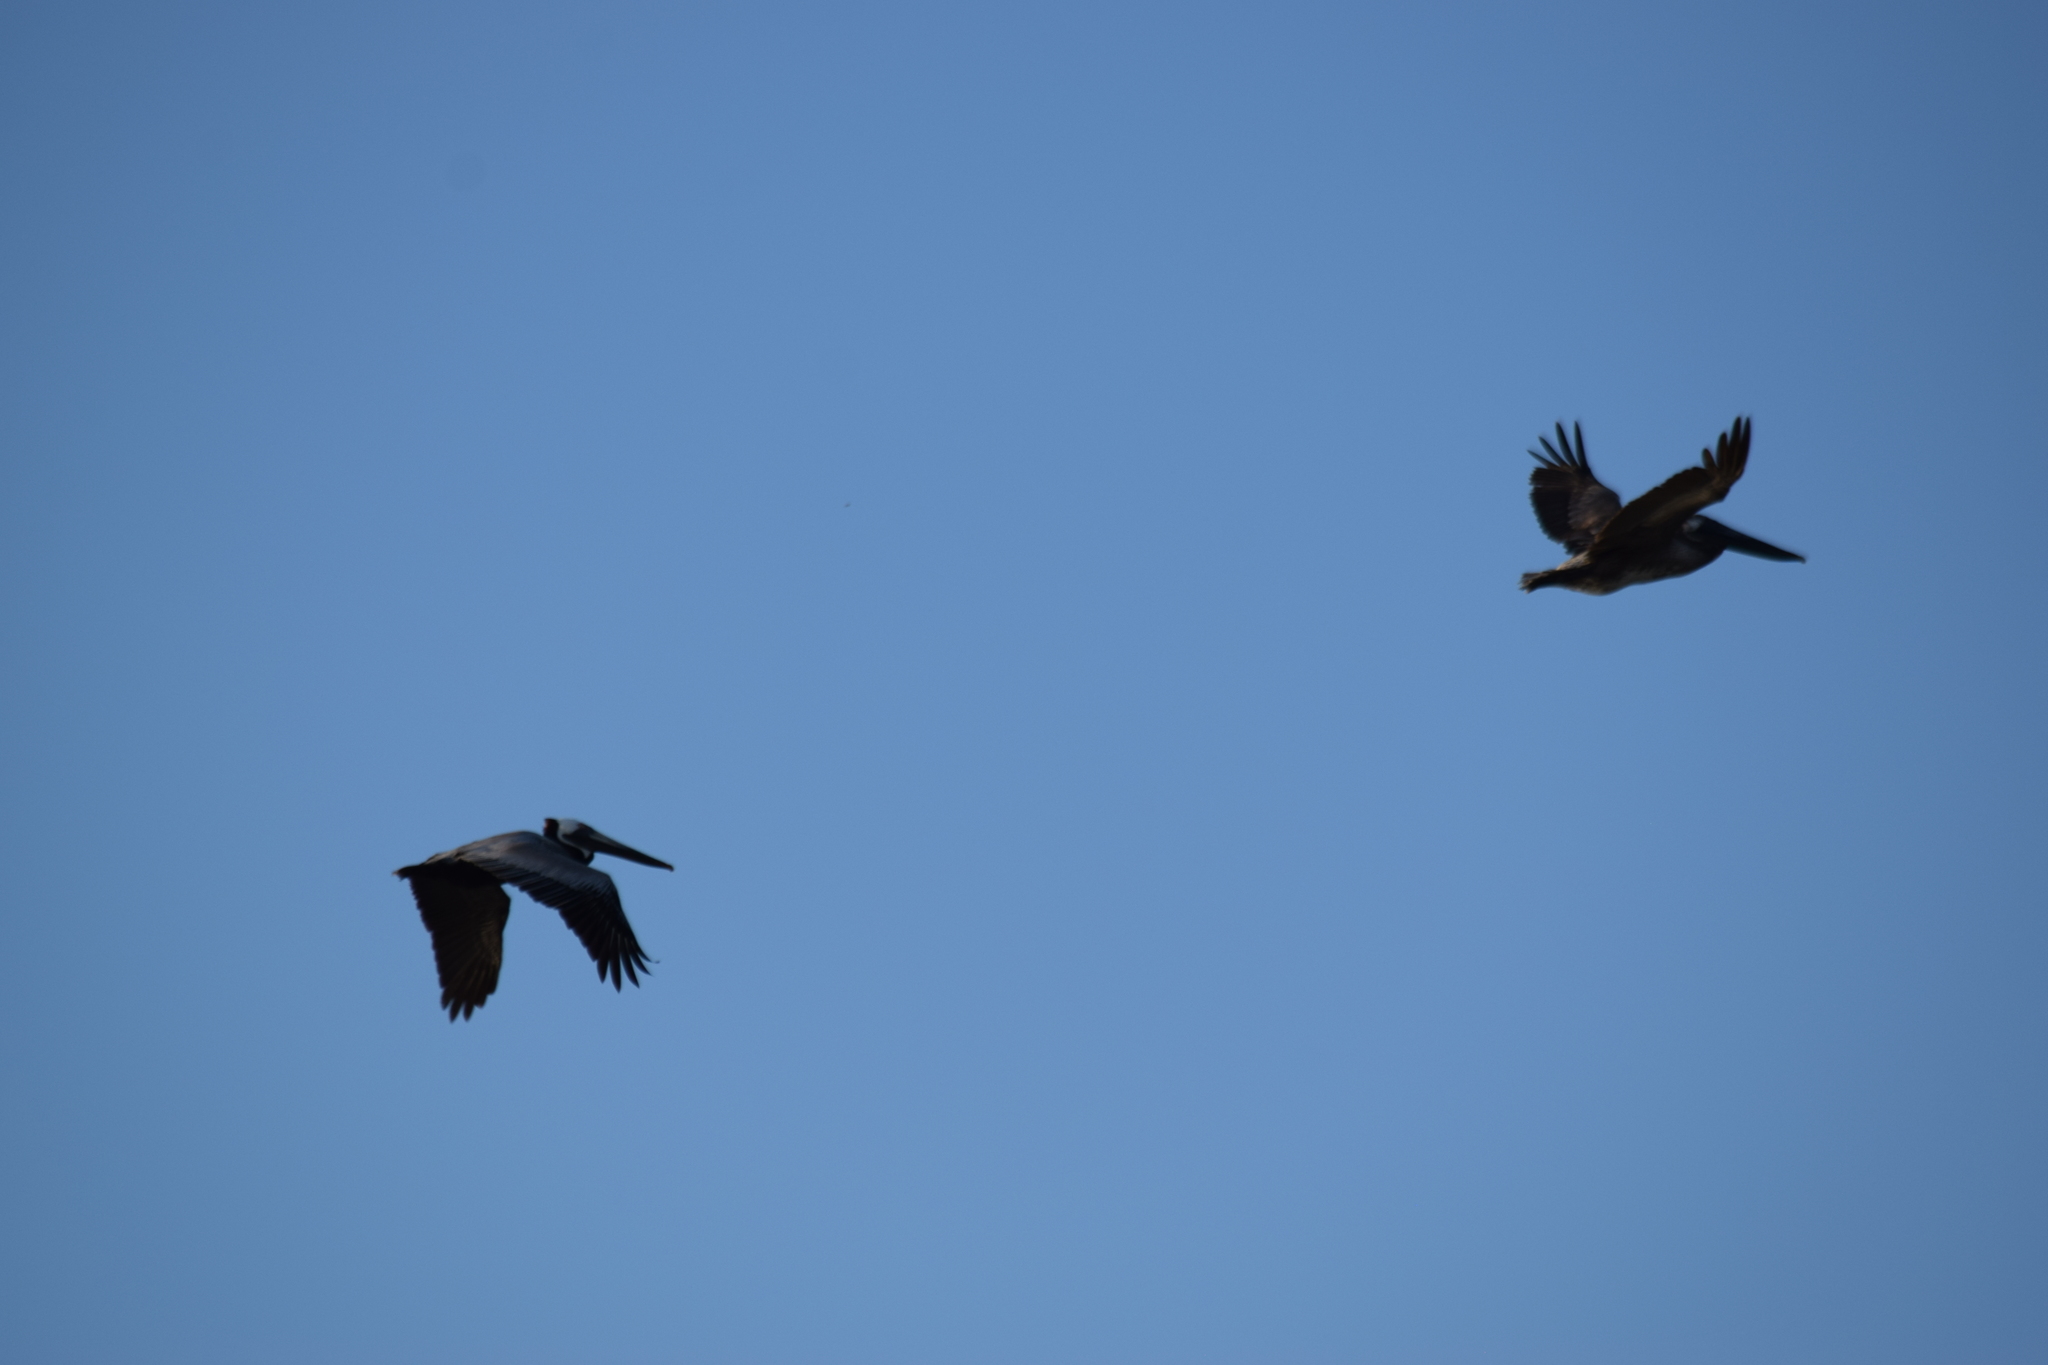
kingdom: Animalia
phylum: Chordata
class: Aves
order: Pelecaniformes
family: Pelecanidae
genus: Pelecanus
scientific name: Pelecanus occidentalis
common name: Brown pelican
